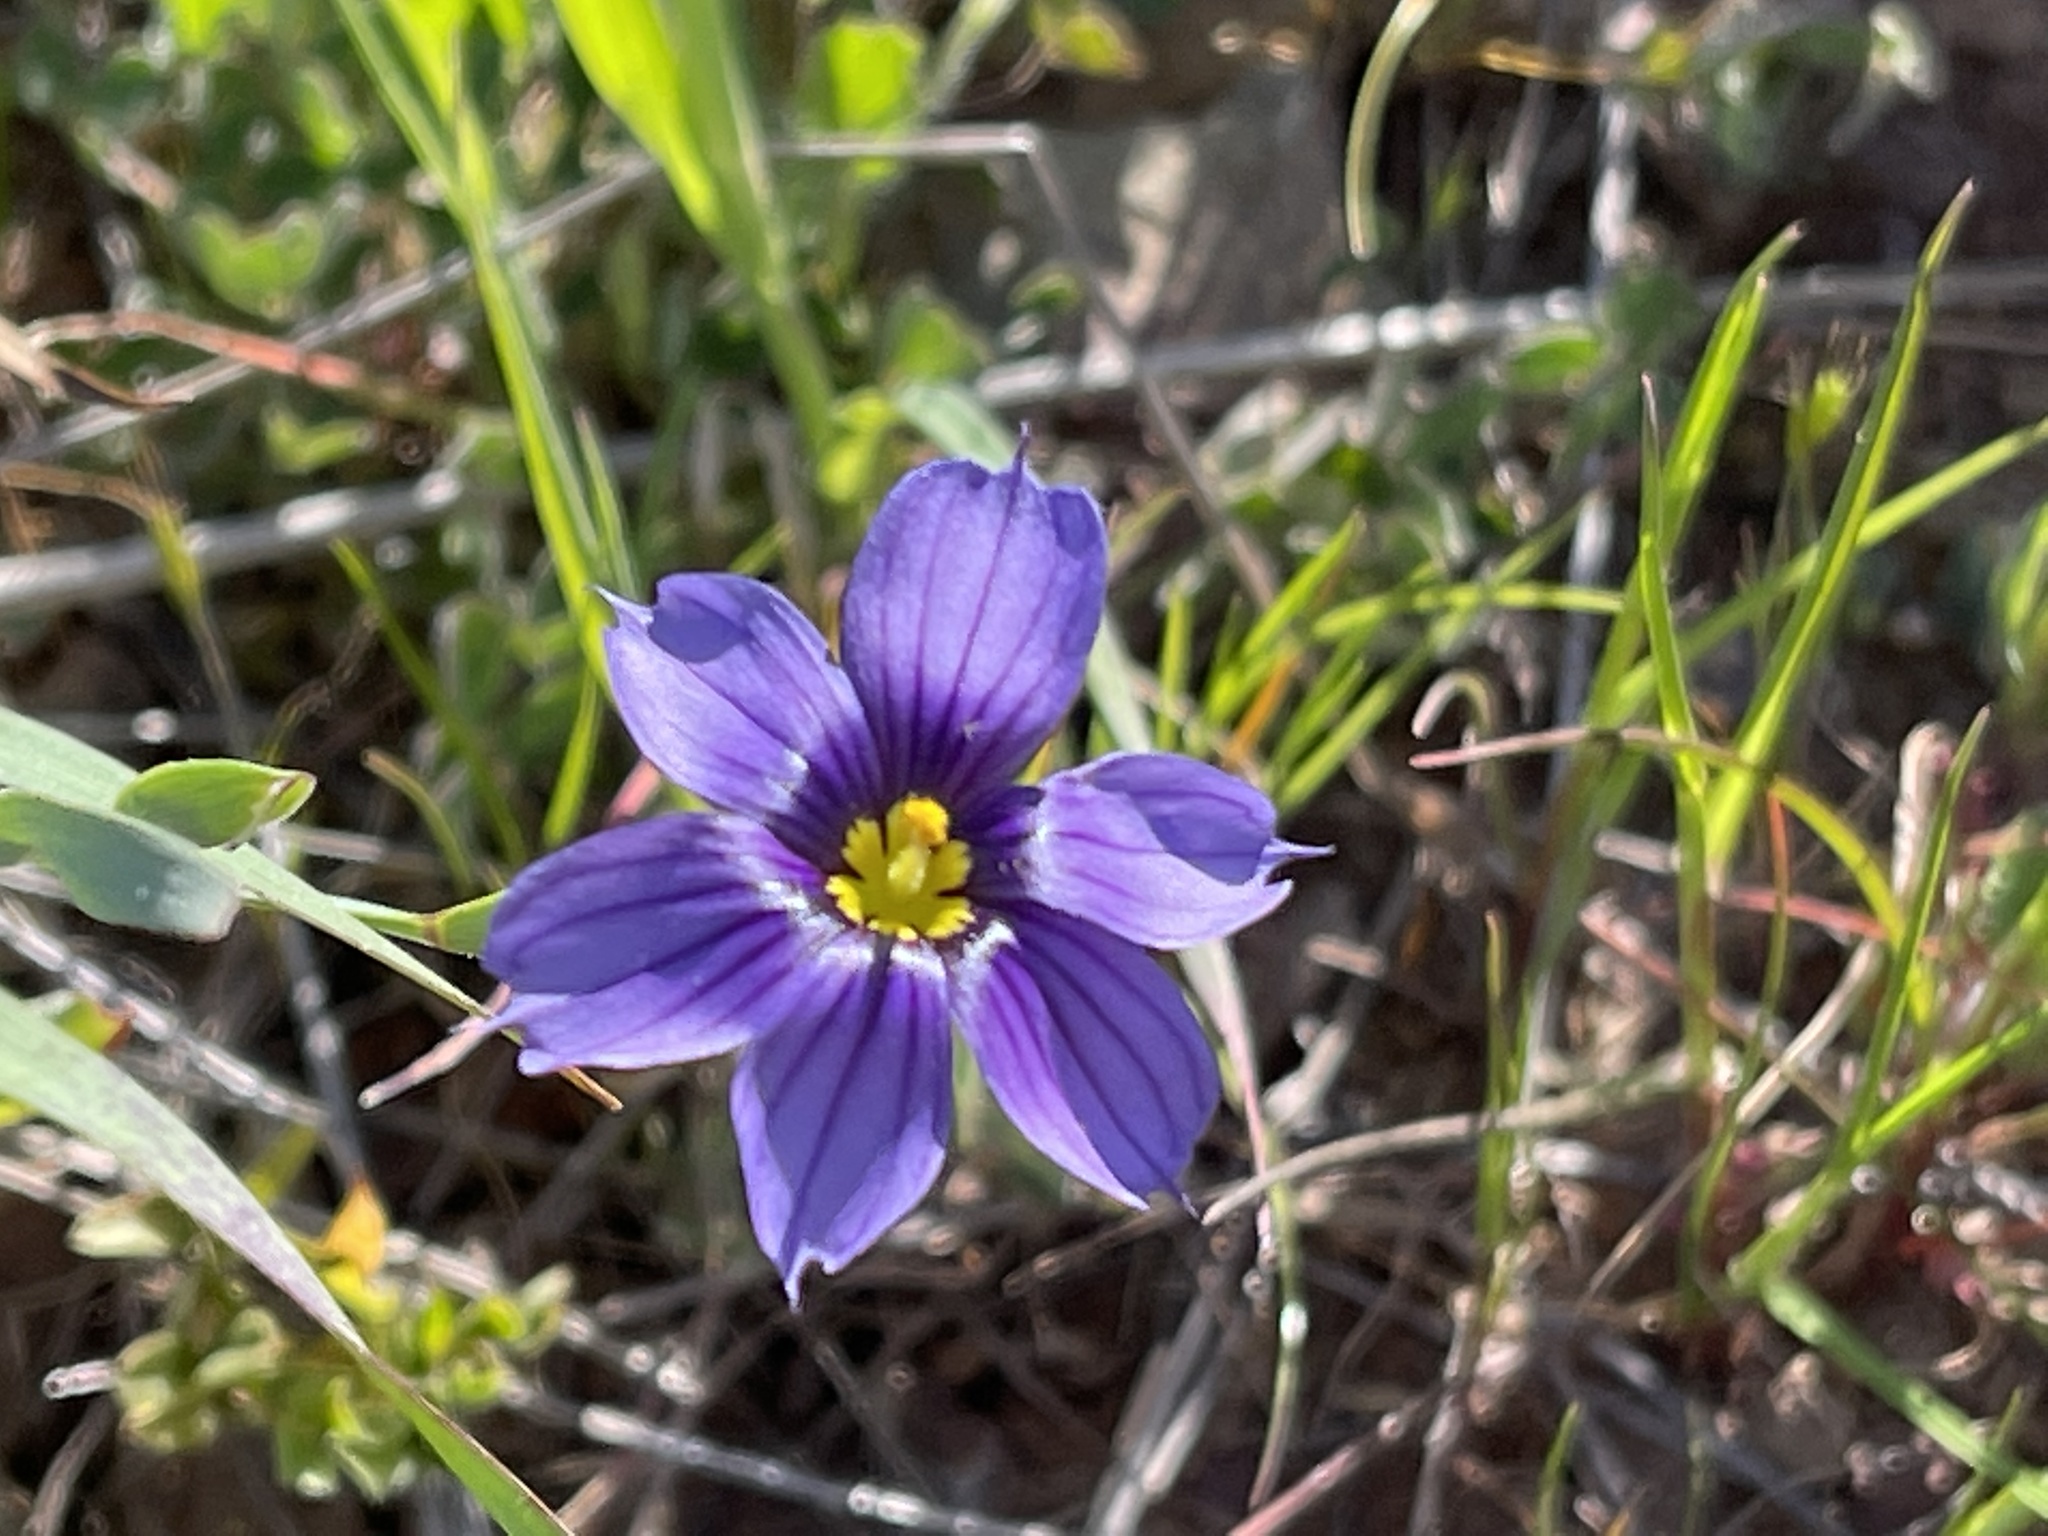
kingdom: Plantae
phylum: Tracheophyta
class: Liliopsida
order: Asparagales
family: Iridaceae
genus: Sisyrinchium
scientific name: Sisyrinchium bellum
